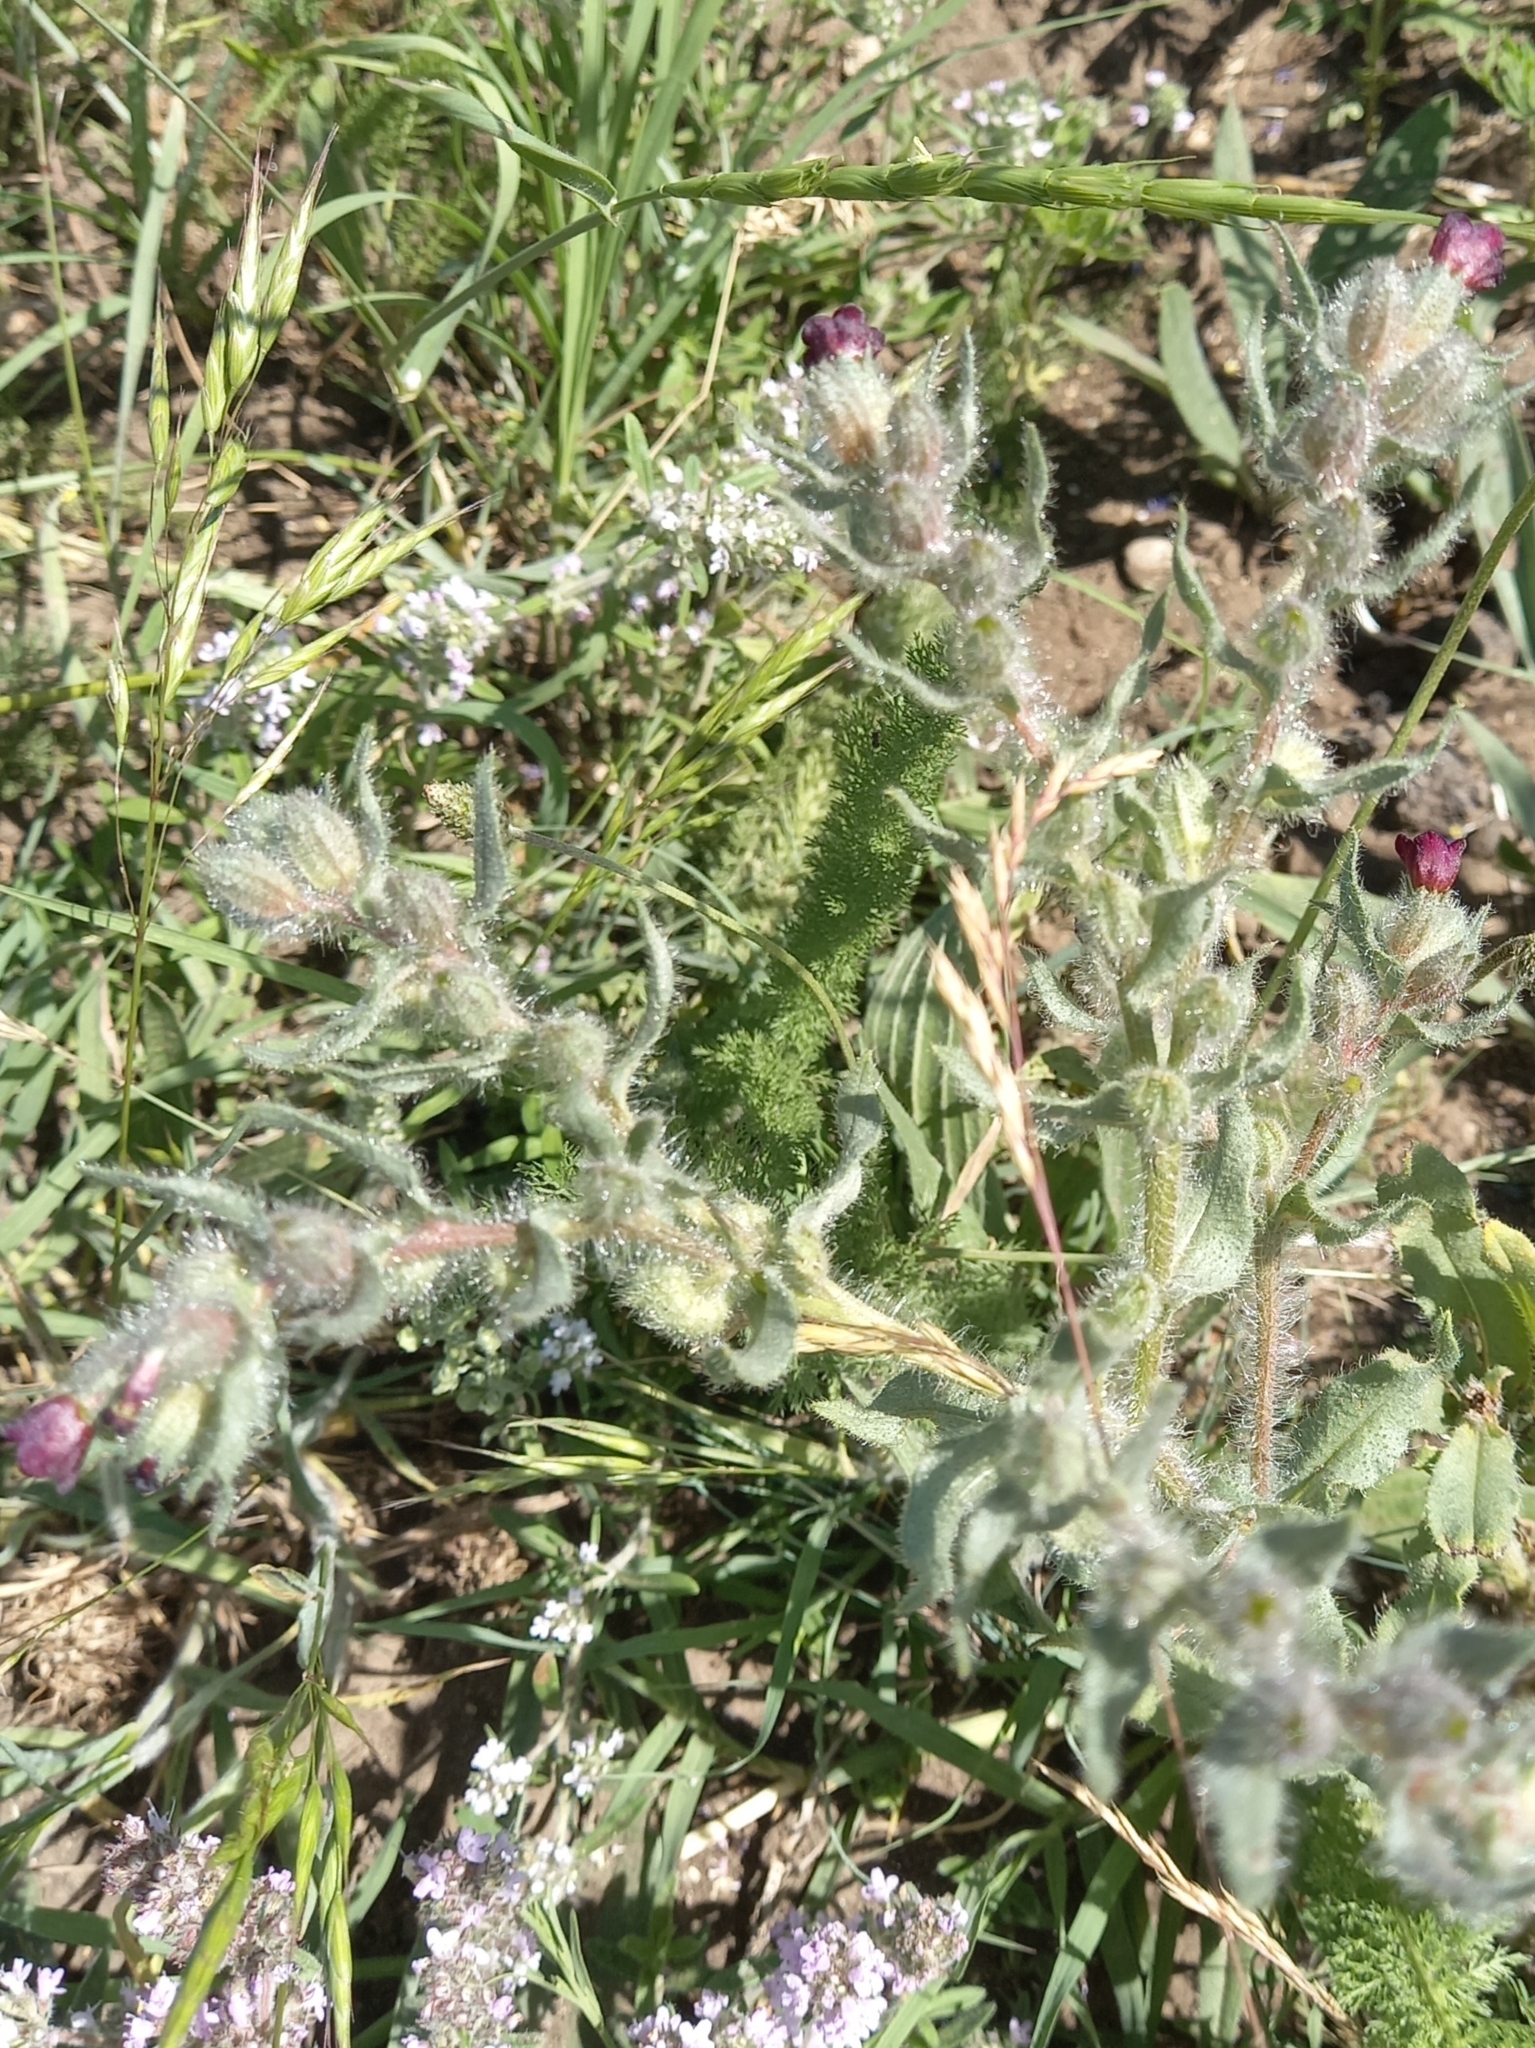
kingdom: Plantae
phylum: Tracheophyta
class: Magnoliopsida
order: Boraginales
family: Boraginaceae
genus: Nonea
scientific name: Nonea pulla
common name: Brown nonea
